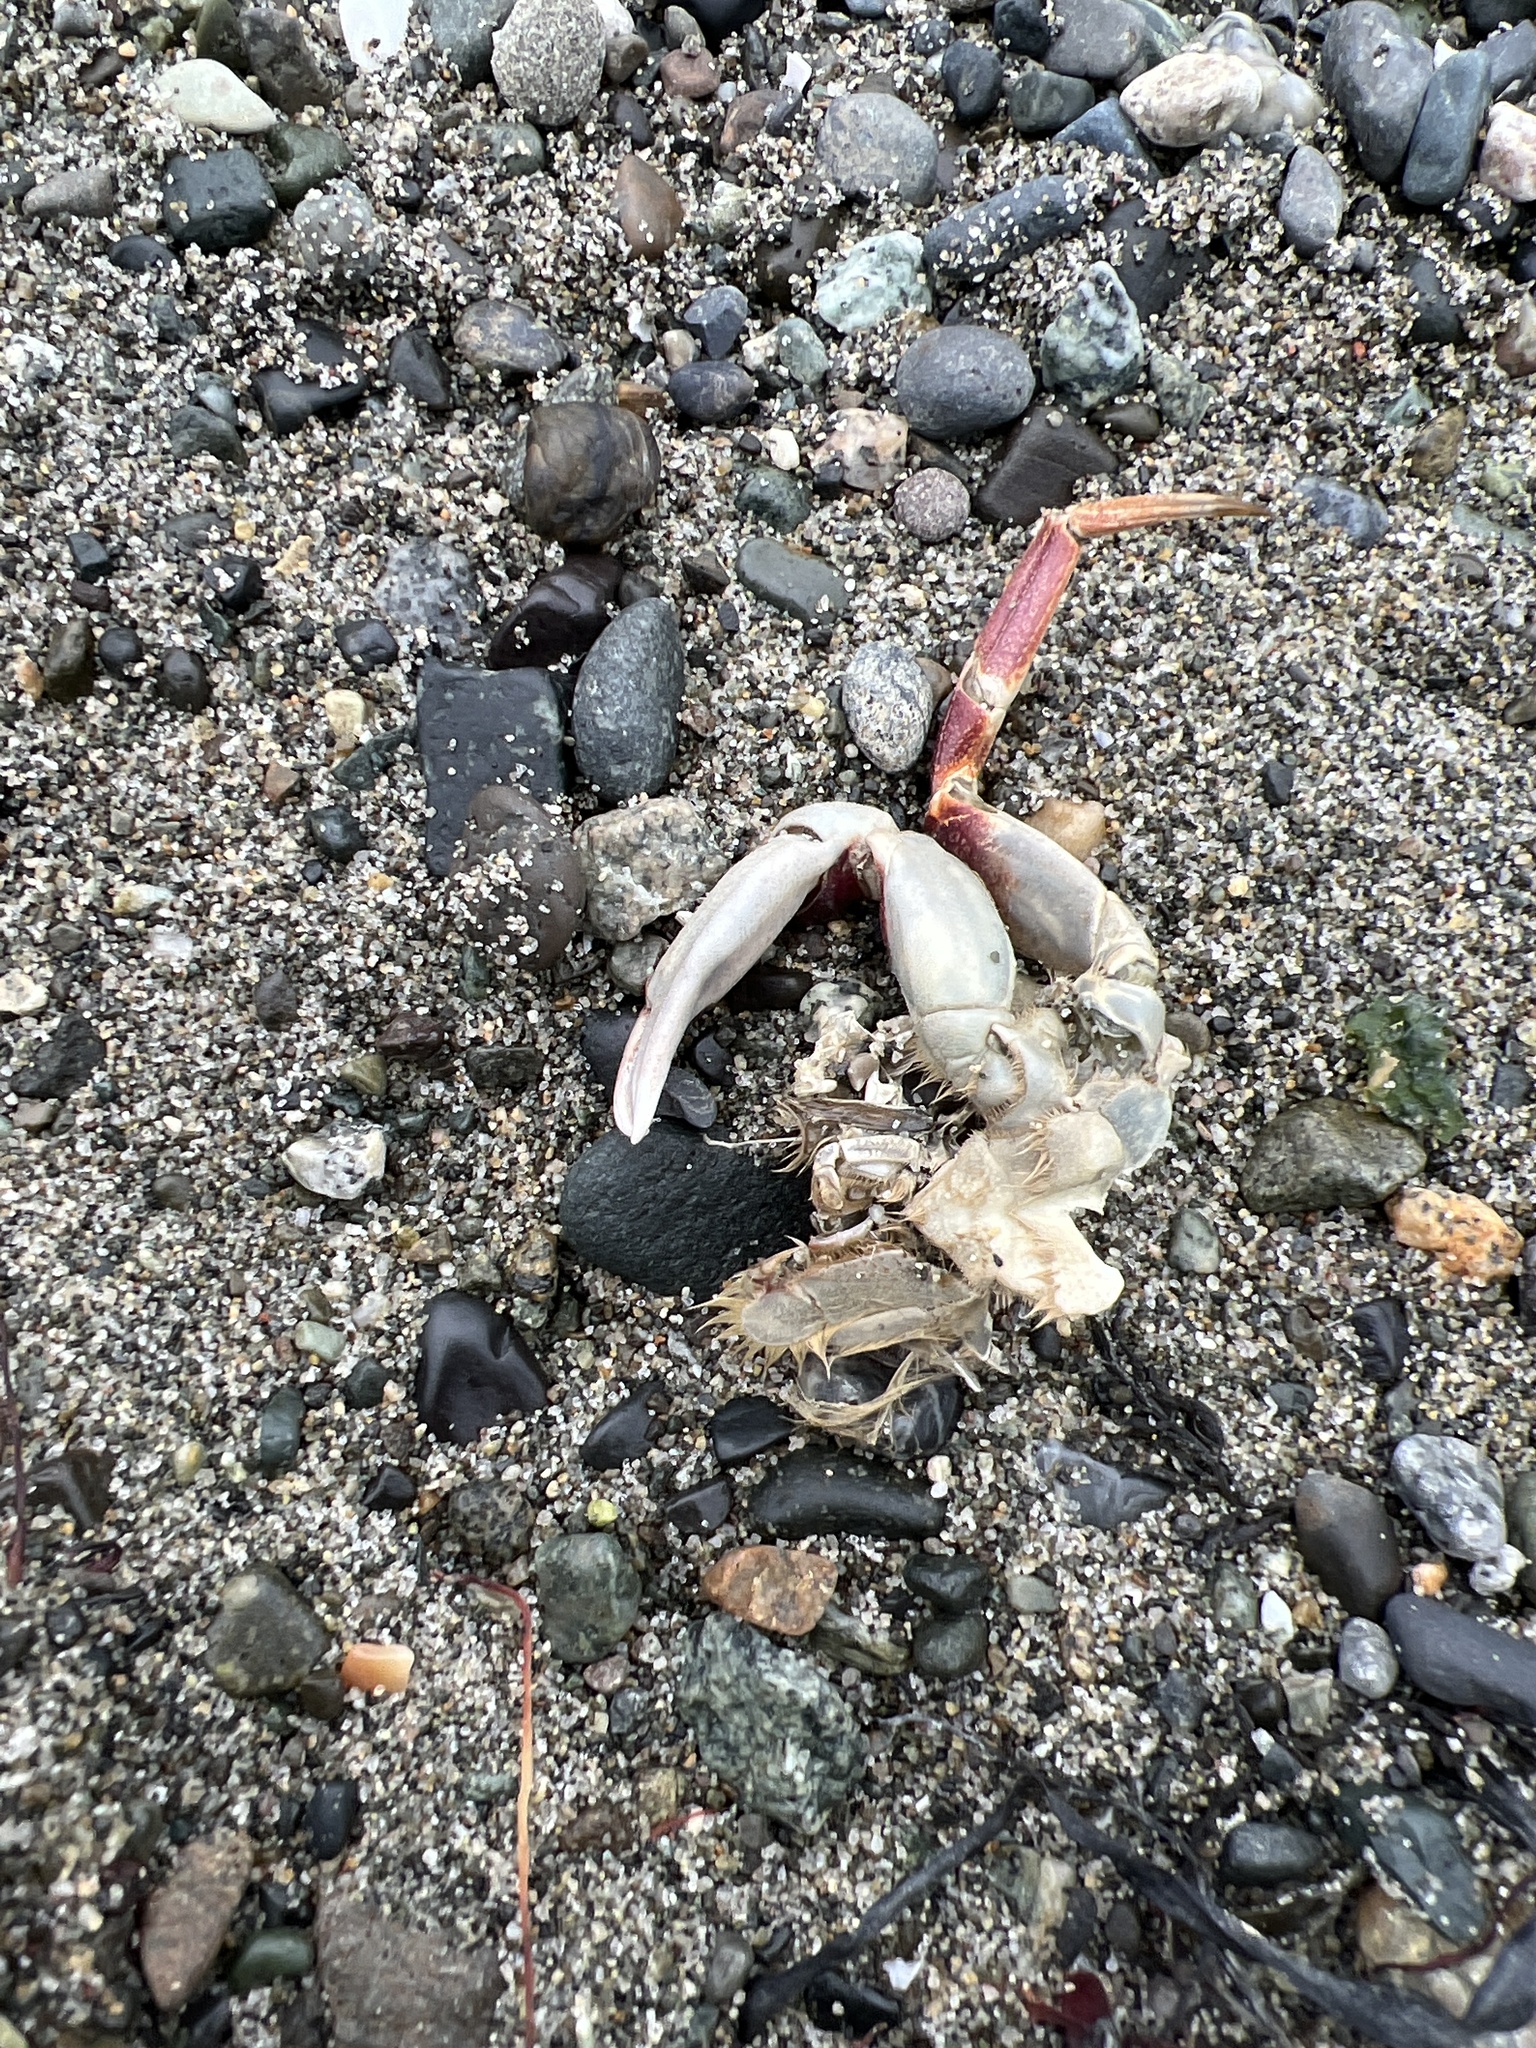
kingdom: Animalia
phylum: Arthropoda
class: Malacostraca
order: Decapoda
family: Cancridae
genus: Metacarcinus
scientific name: Metacarcinus gracilis
